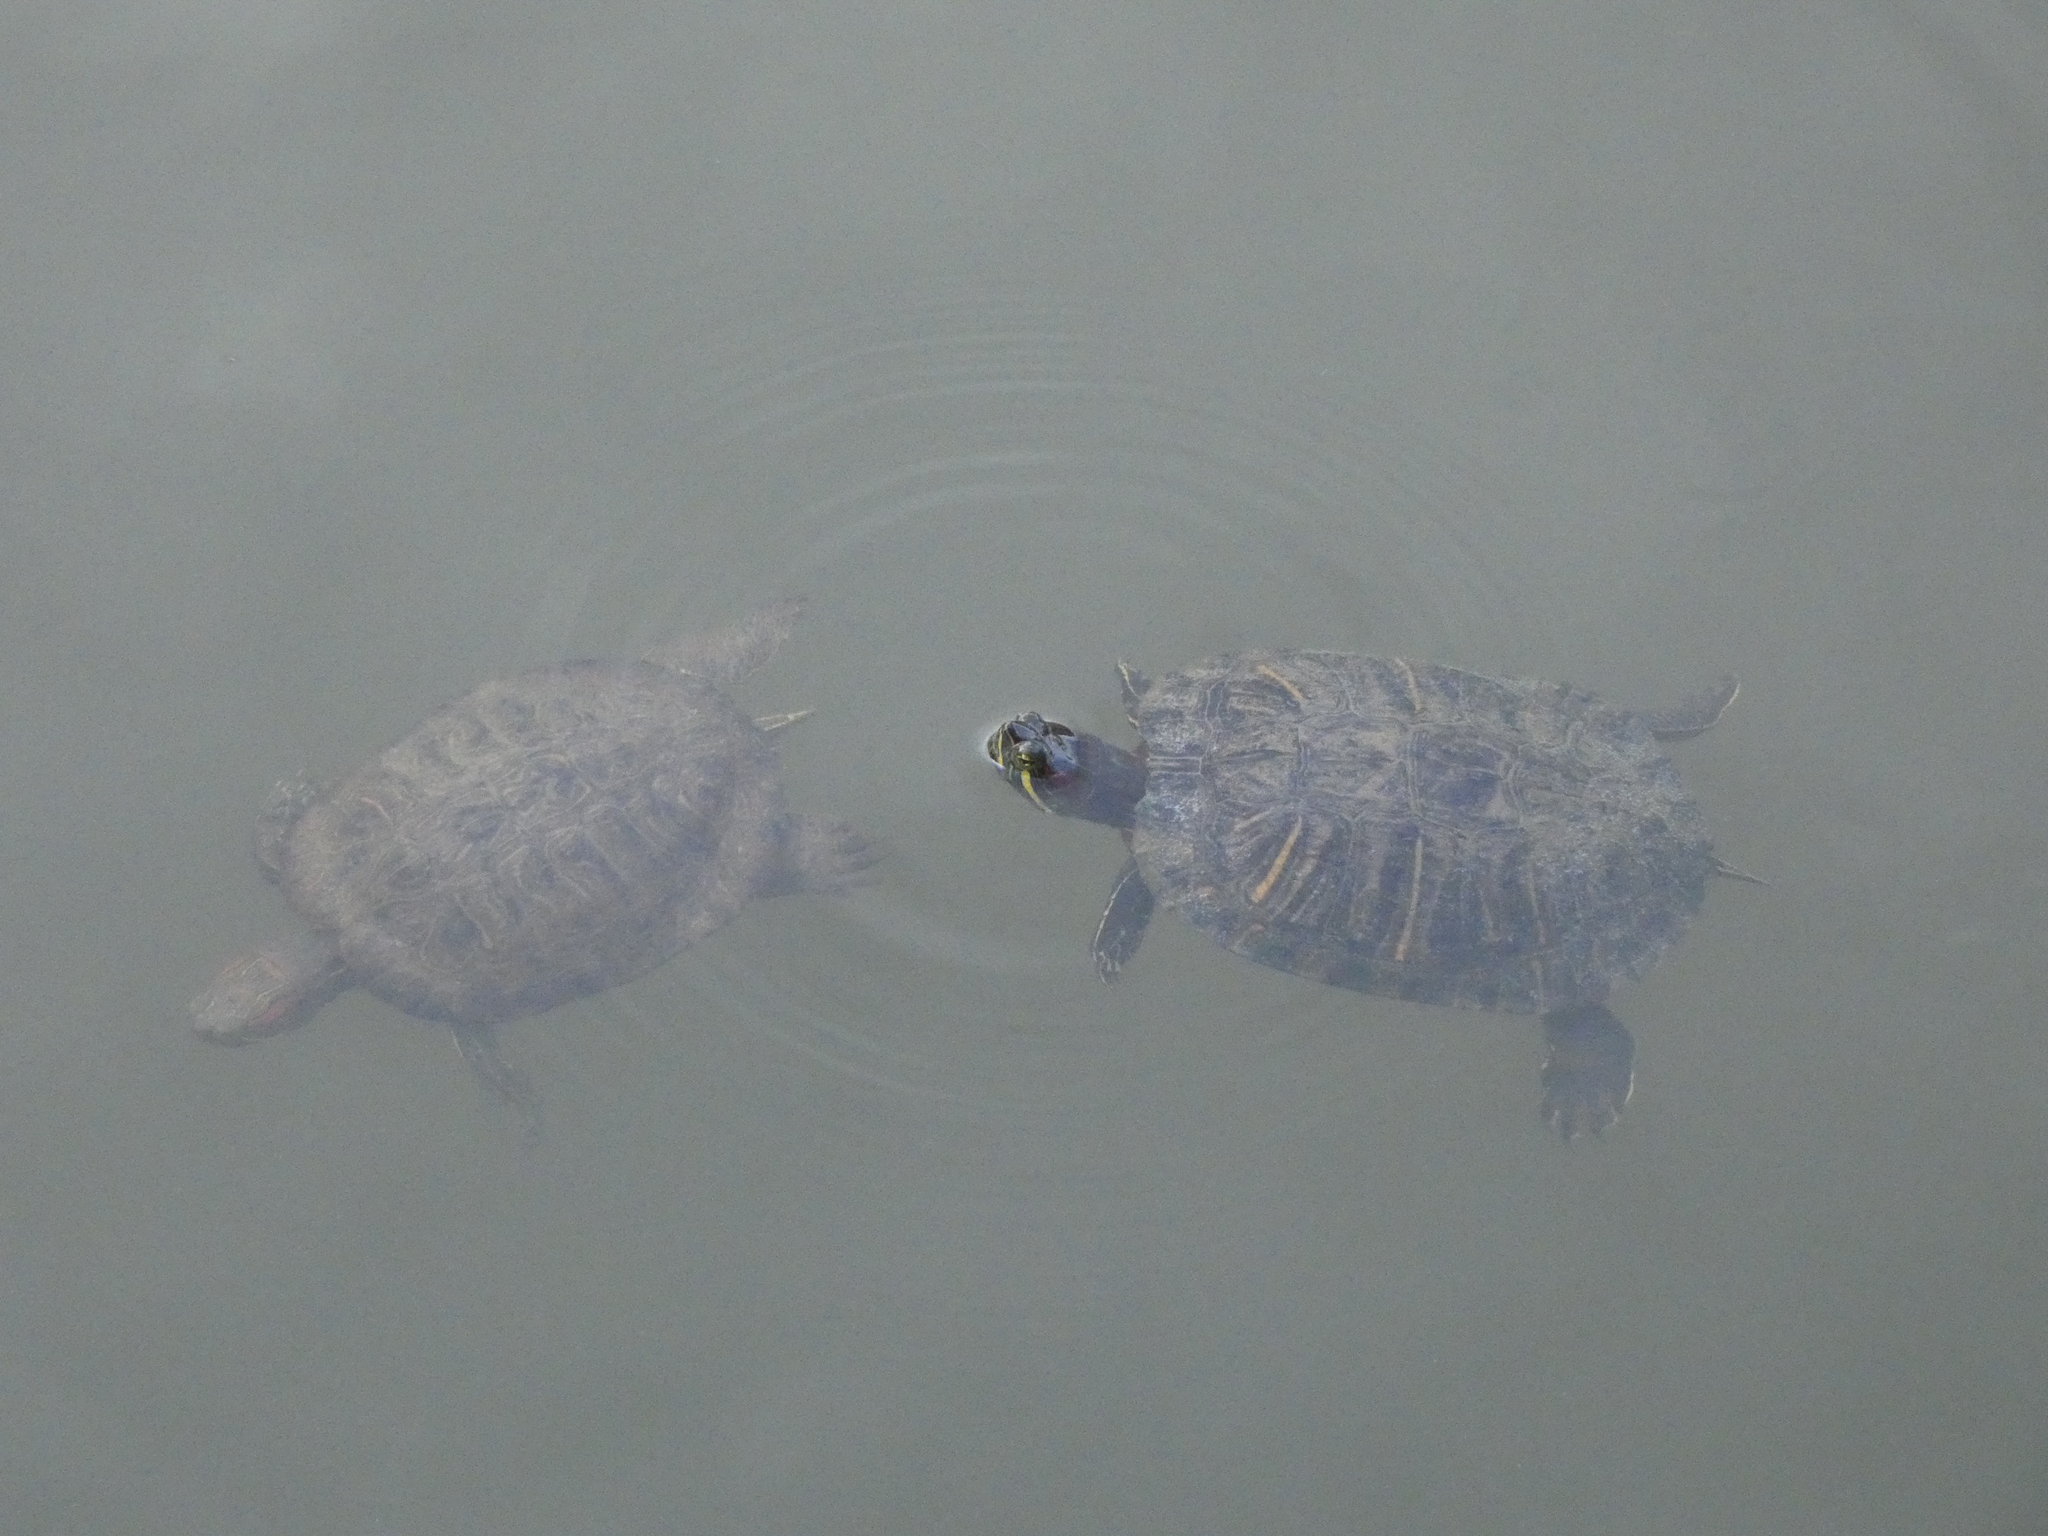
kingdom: Animalia
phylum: Chordata
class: Testudines
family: Emydidae
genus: Trachemys
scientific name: Trachemys scripta
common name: Slider
